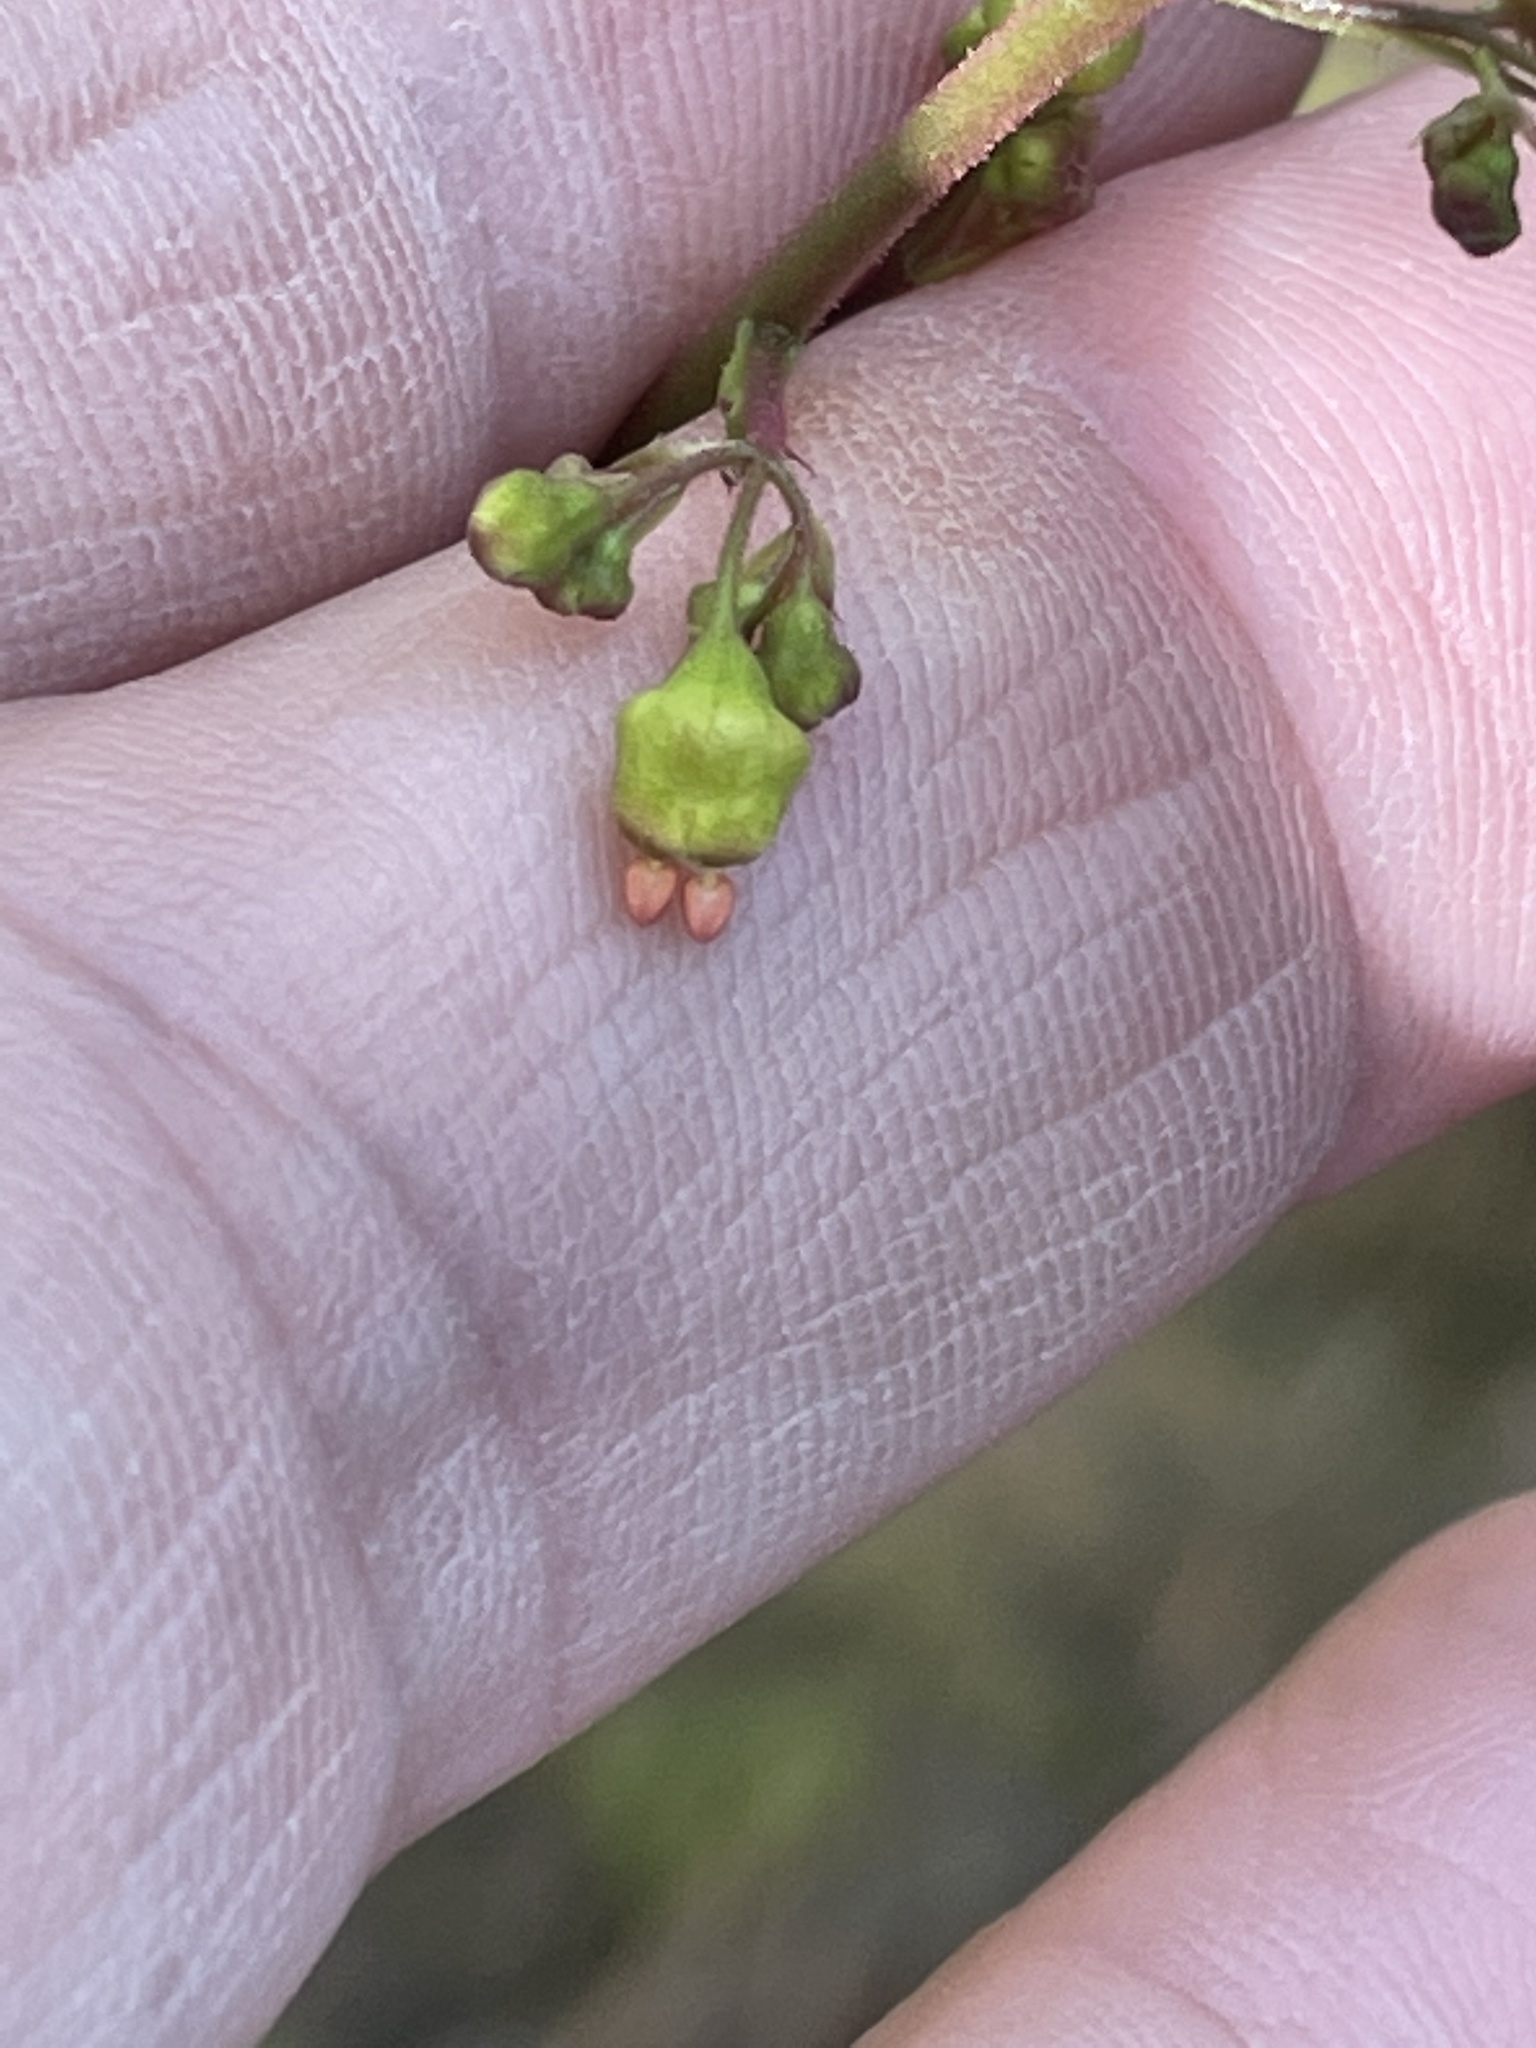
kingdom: Plantae
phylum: Tracheophyta
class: Magnoliopsida
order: Saxifragales
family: Saxifragaceae
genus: Heuchera
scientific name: Heuchera caroliniana
